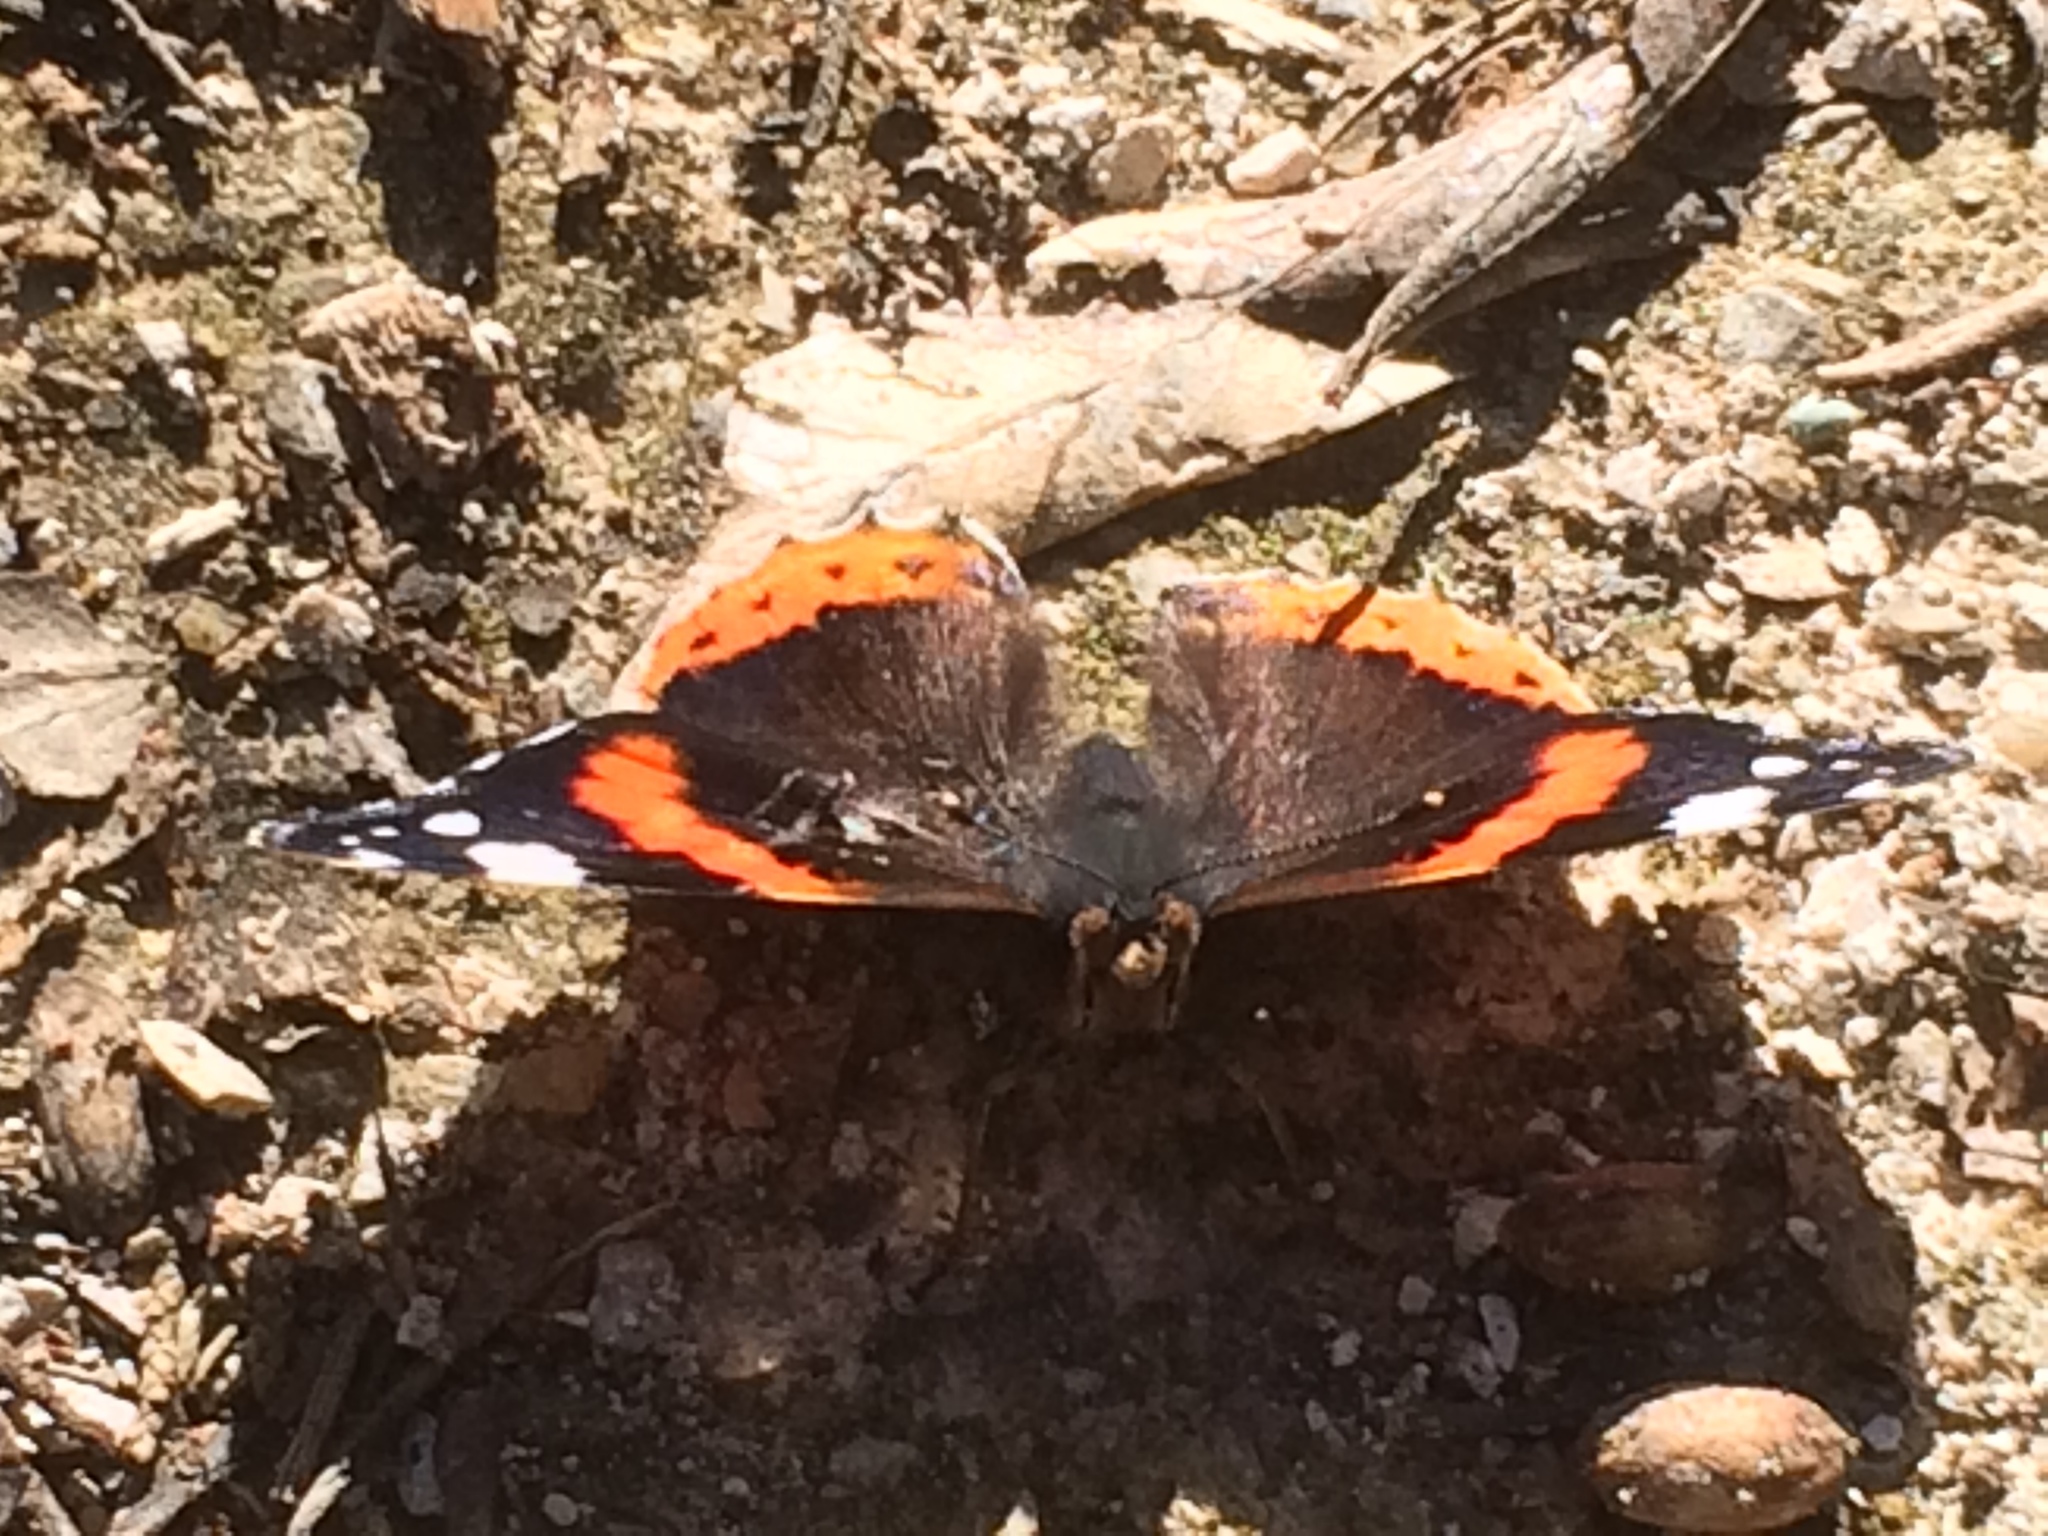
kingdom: Animalia
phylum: Arthropoda
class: Insecta
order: Lepidoptera
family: Nymphalidae
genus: Vanessa
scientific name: Vanessa atalanta
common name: Red admiral
